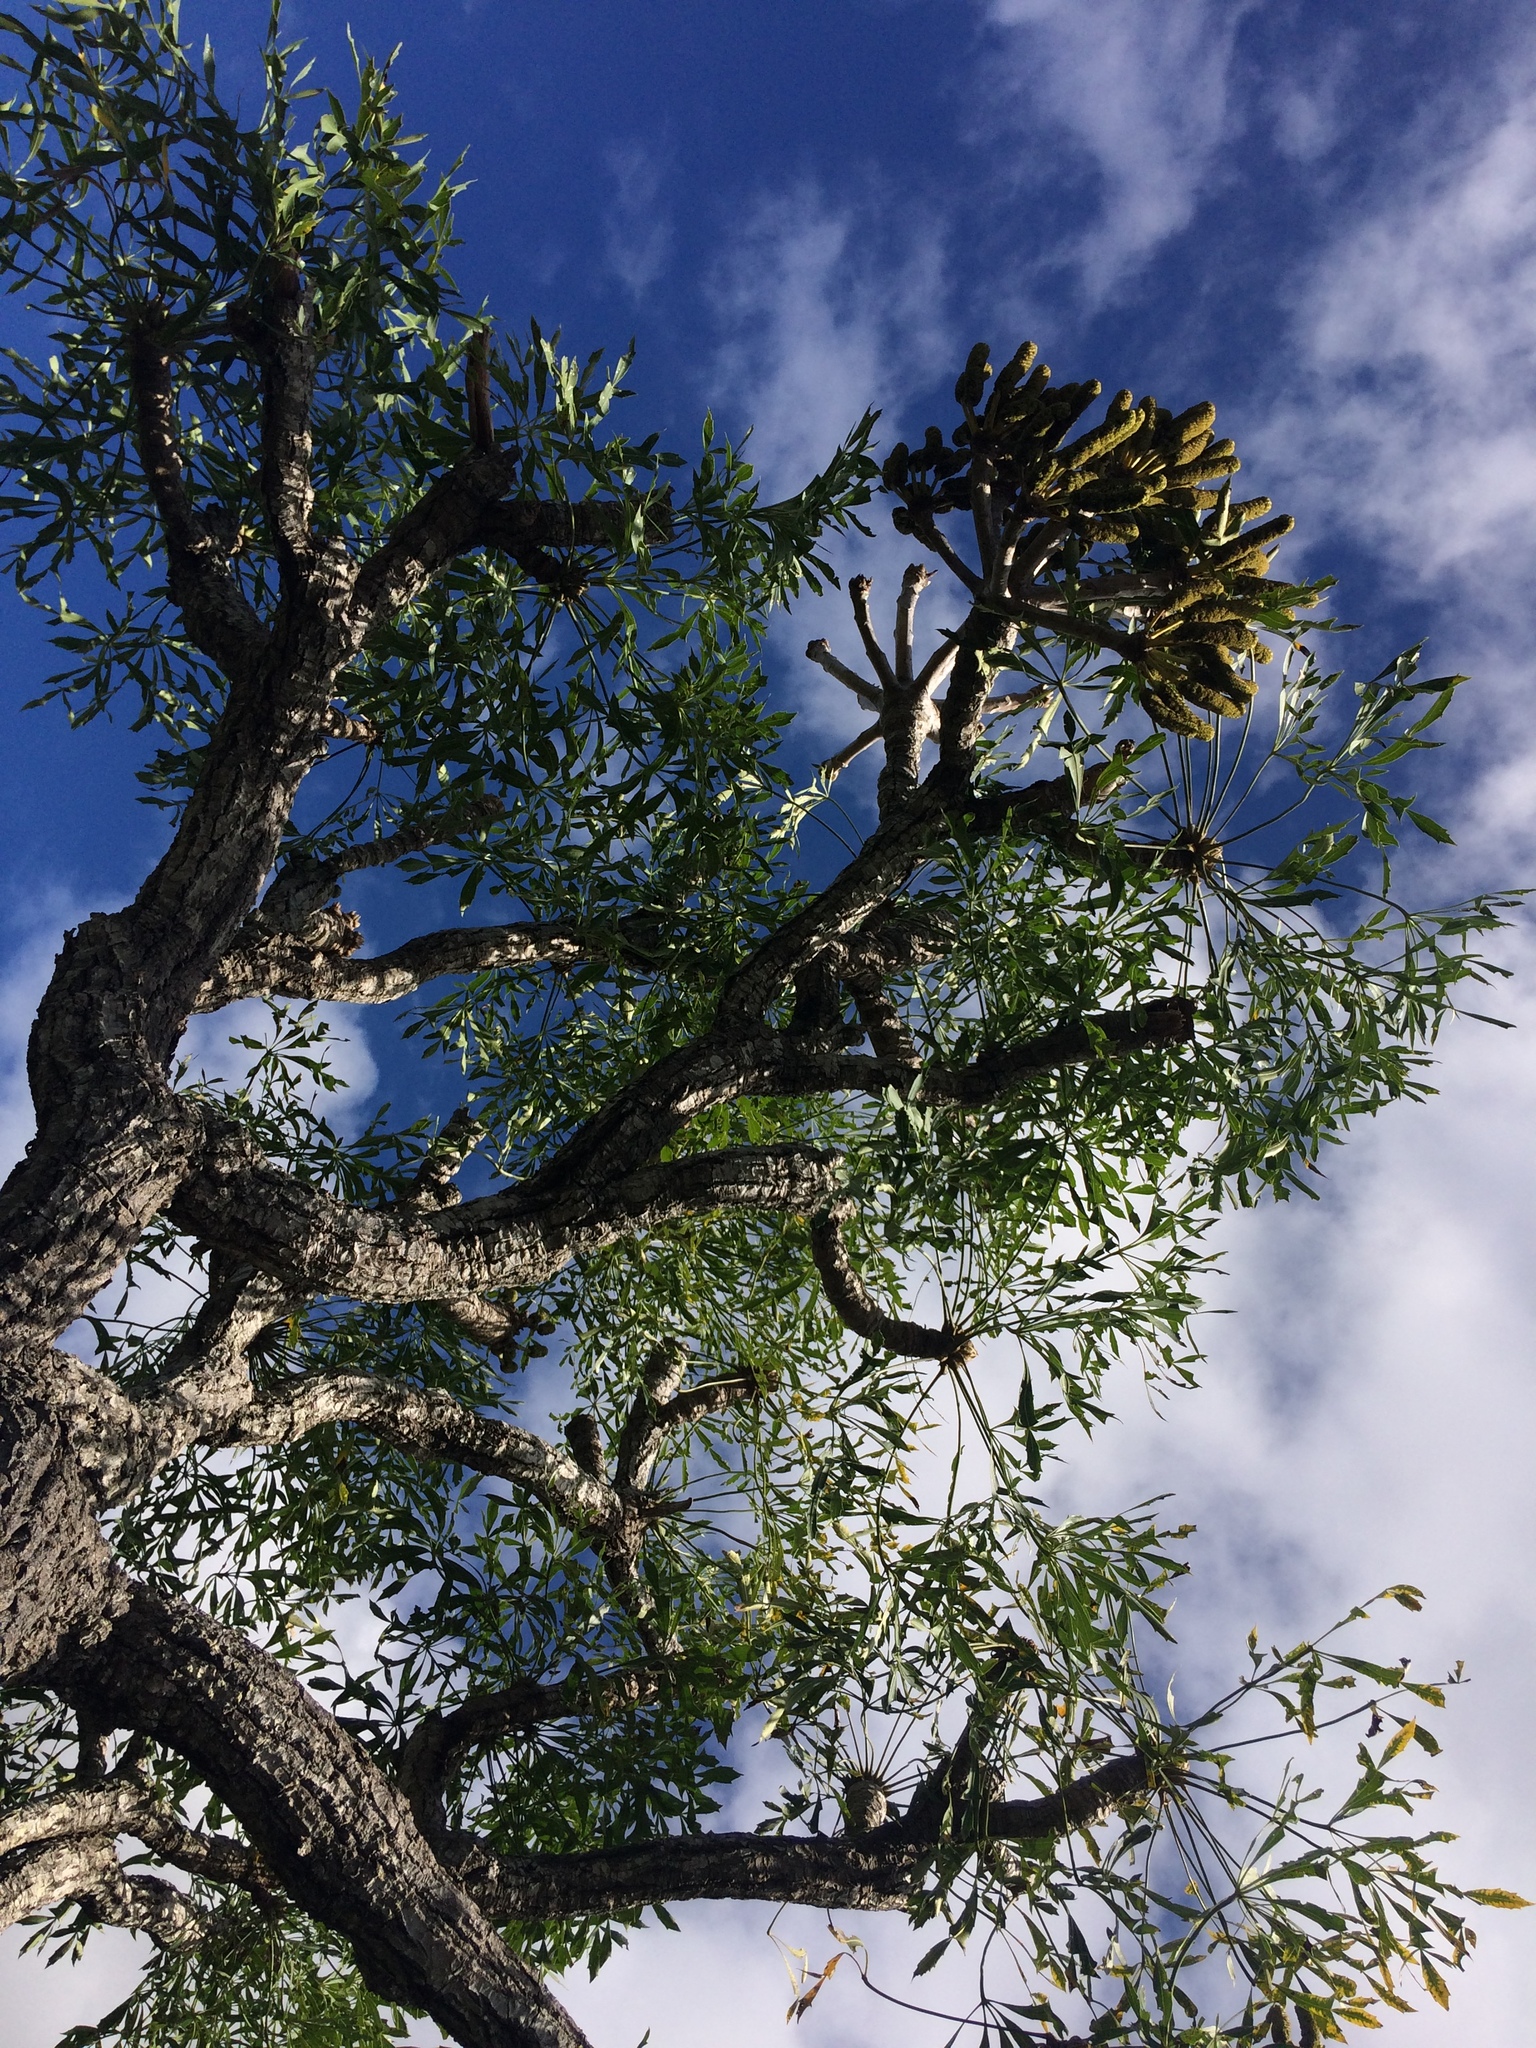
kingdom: Plantae
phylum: Tracheophyta
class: Magnoliopsida
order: Apiales
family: Araliaceae
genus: Cussonia
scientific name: Cussonia spicata
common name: Common cabbagetree
